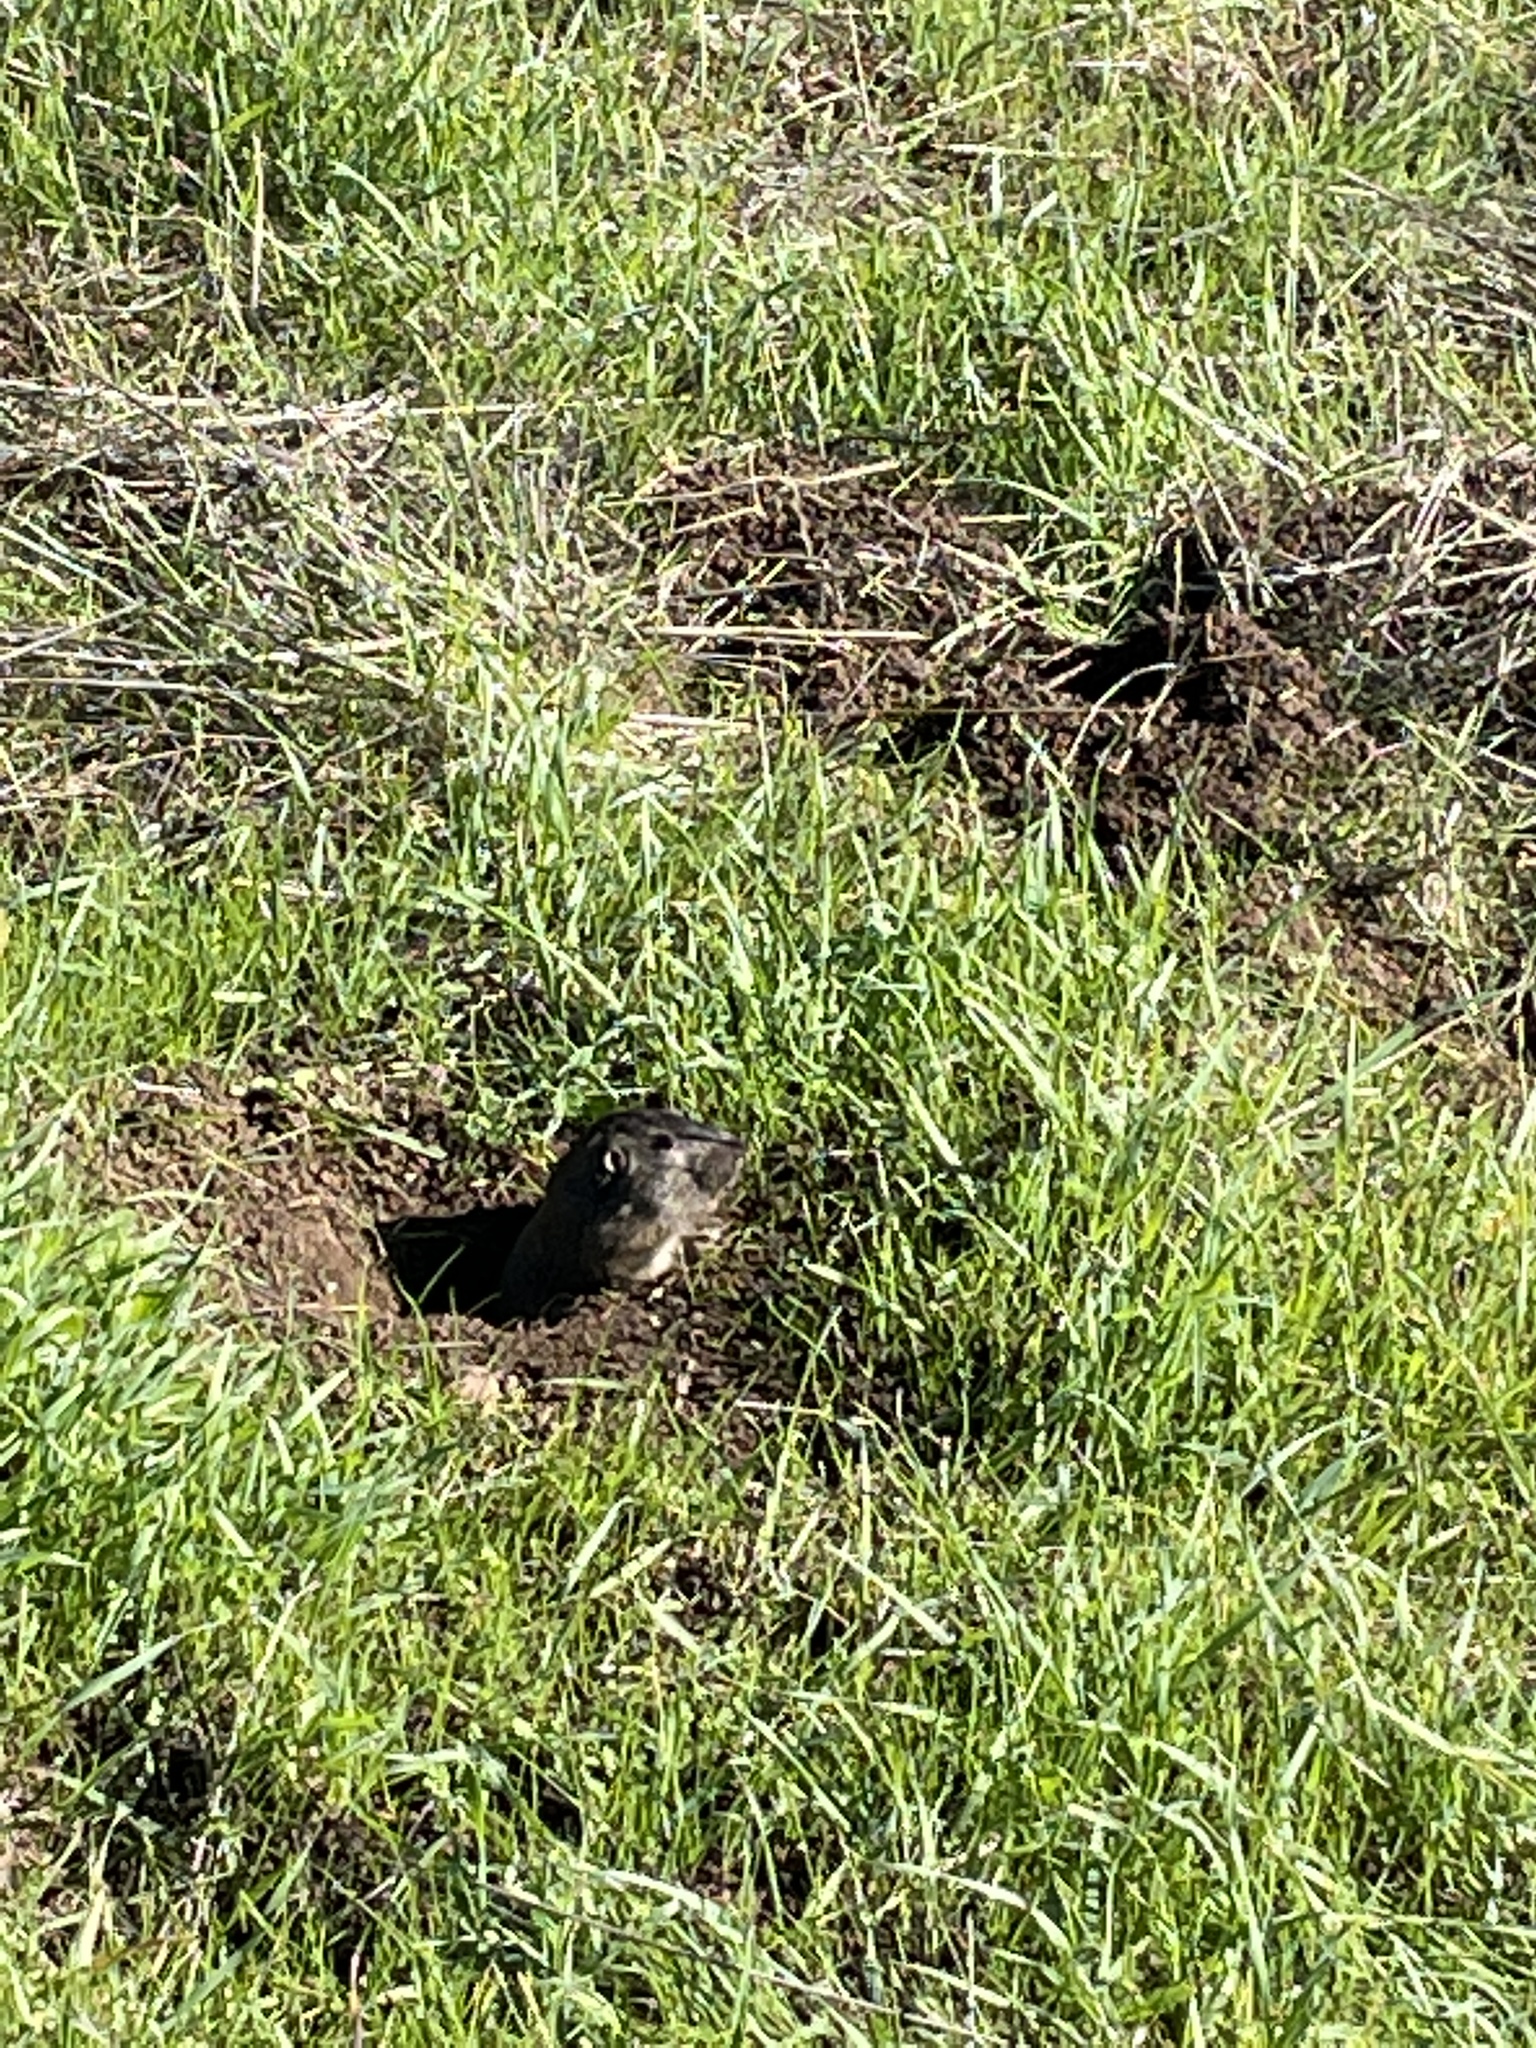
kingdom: Animalia
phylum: Chordata
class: Mammalia
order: Rodentia
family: Geomyidae
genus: Thomomys
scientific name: Thomomys bottae
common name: Botta's pocket gopher
